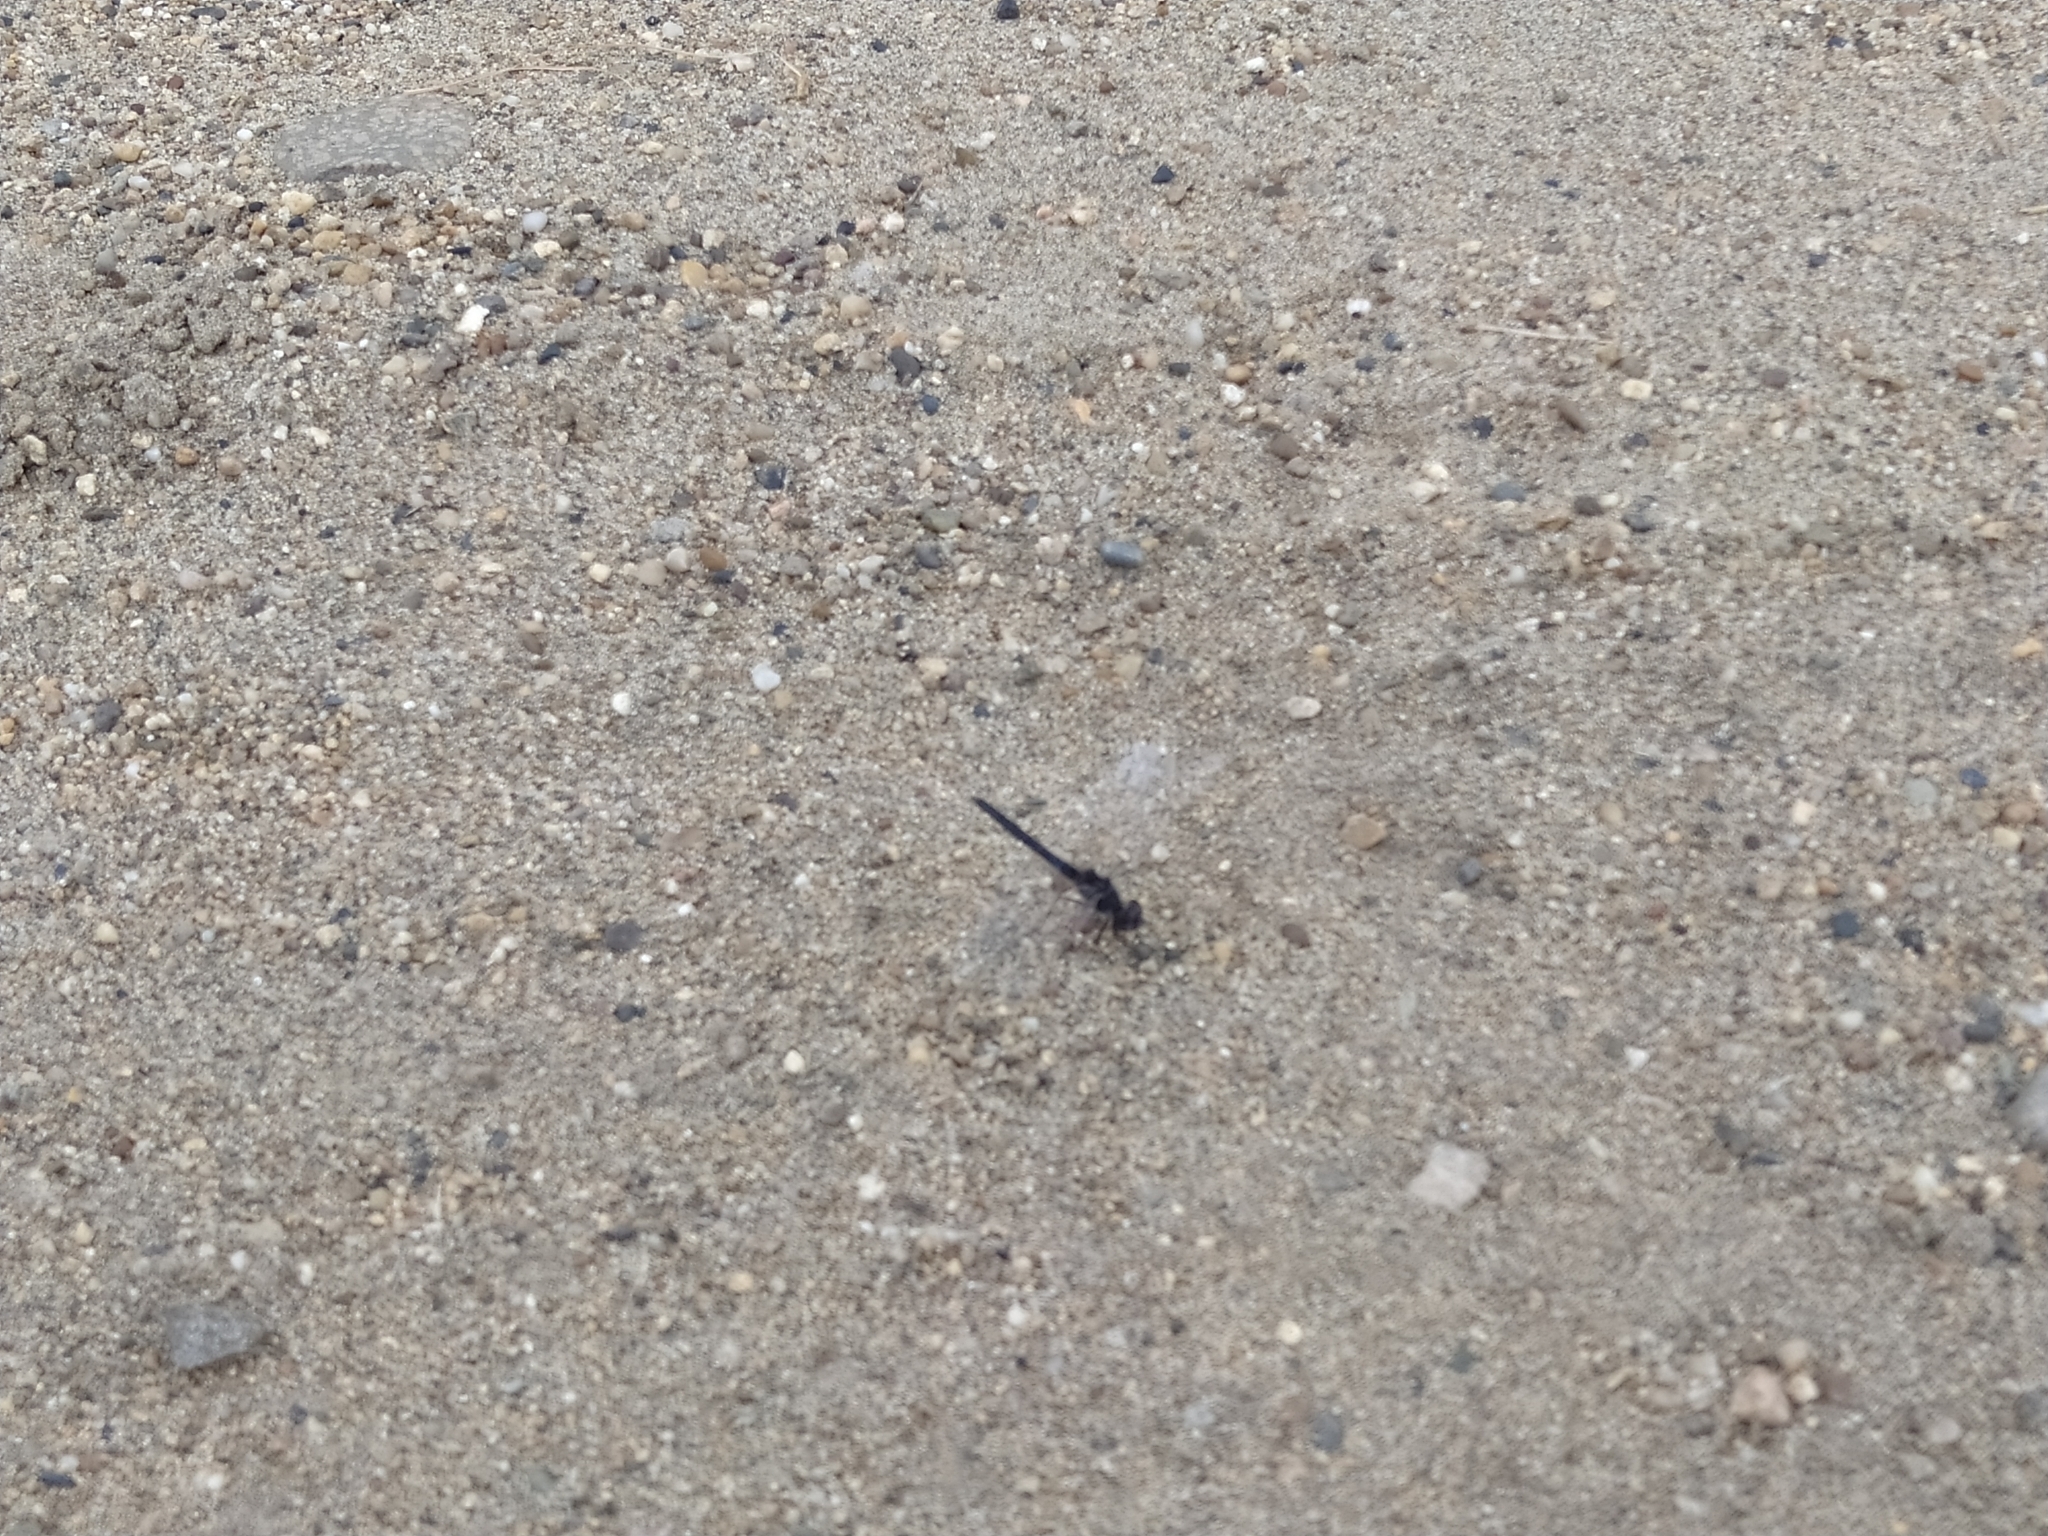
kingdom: Animalia
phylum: Arthropoda
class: Insecta
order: Odonata
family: Libellulidae
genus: Selysiothemis
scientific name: Selysiothemis nigra
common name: Black pennant
